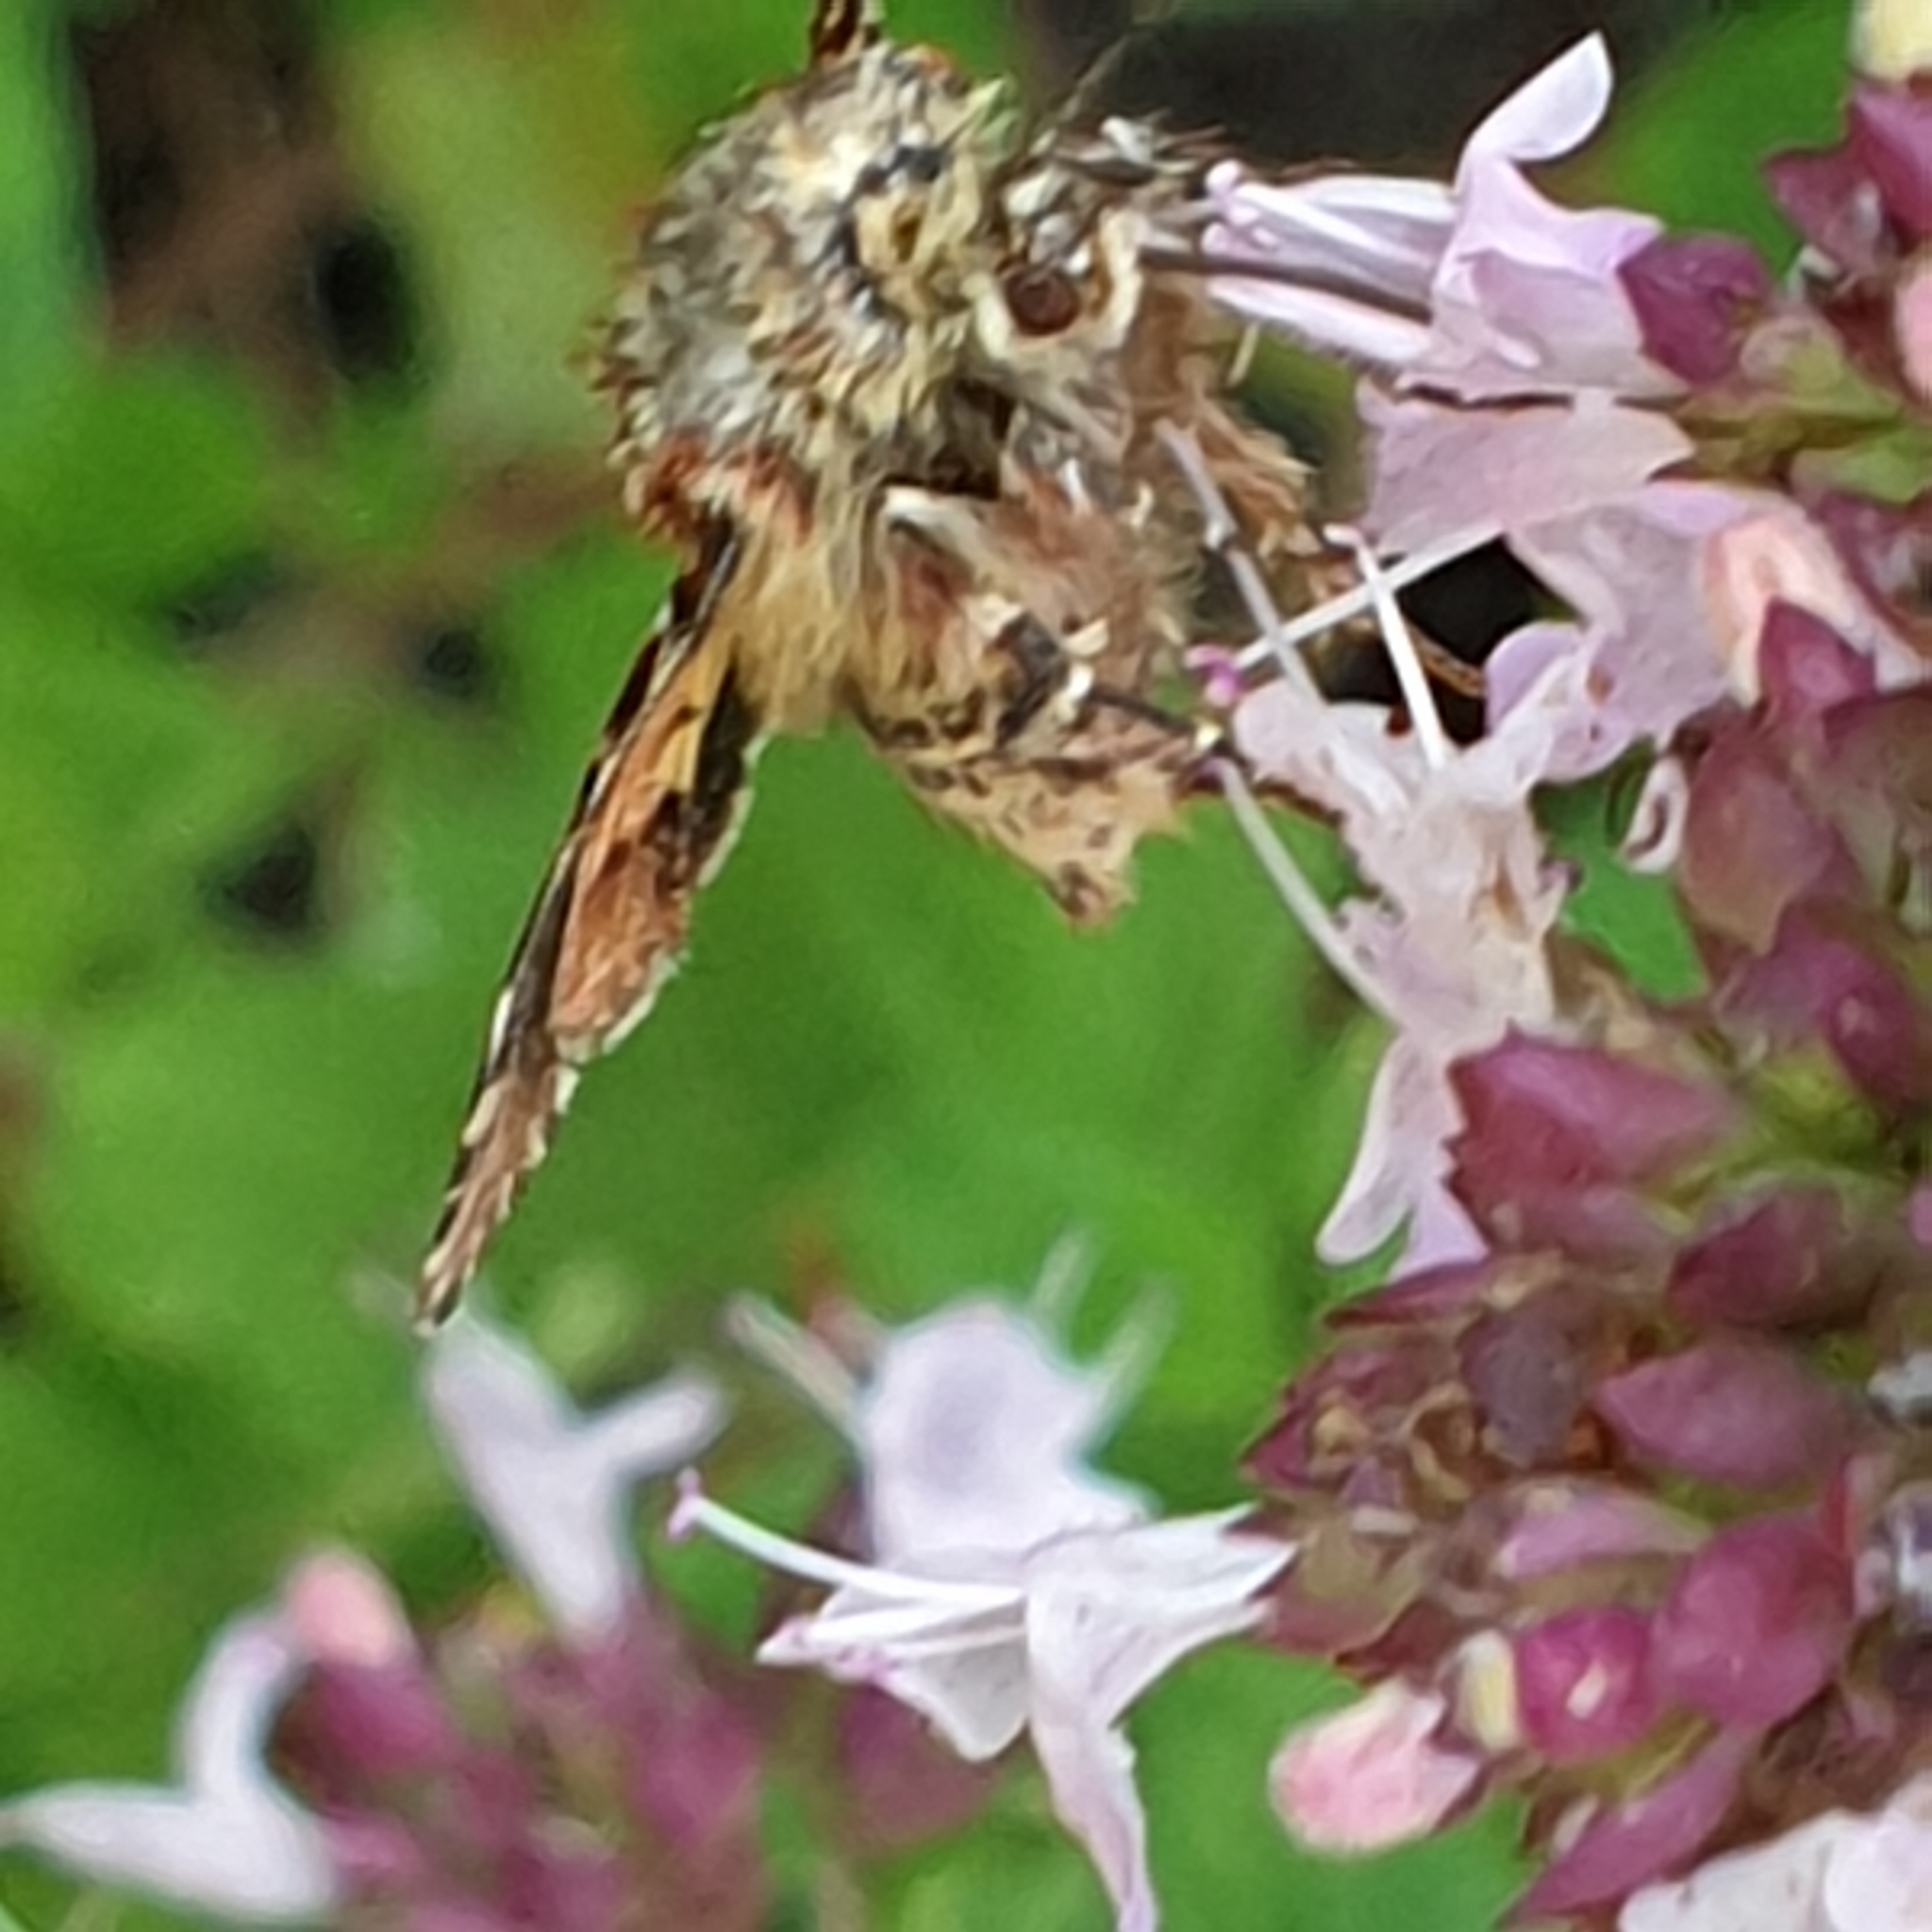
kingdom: Animalia
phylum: Arthropoda
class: Insecta
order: Lepidoptera
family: Noctuidae
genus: Anarta
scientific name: Anarta myrtilli
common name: Beautiful yellow underwing
